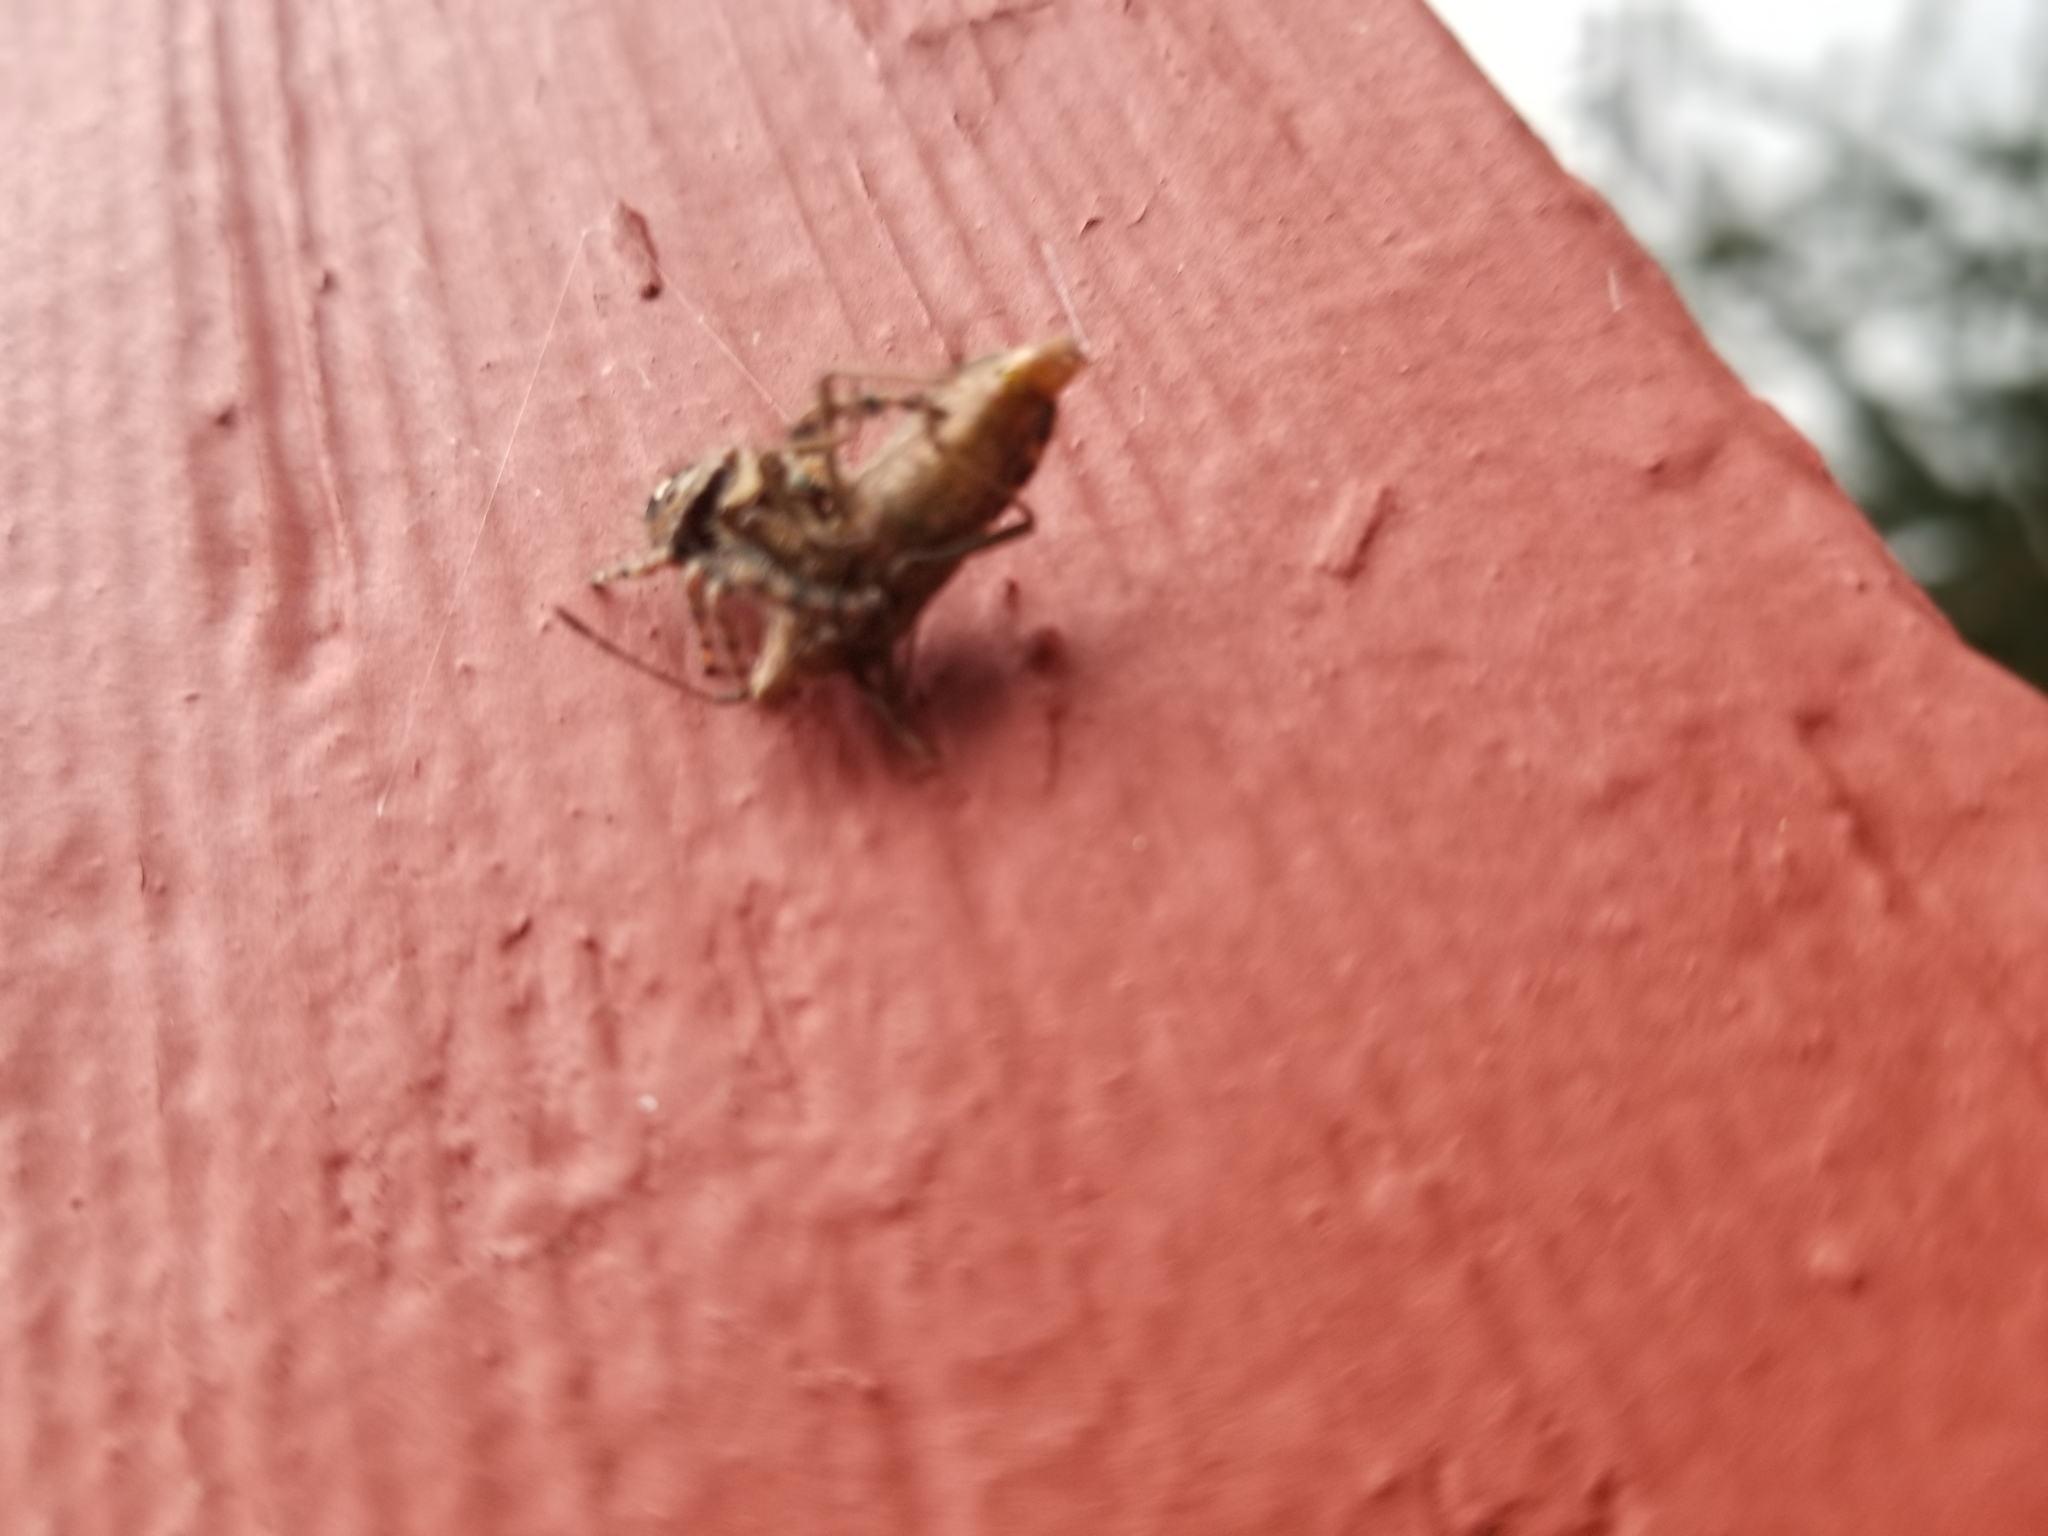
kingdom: Animalia
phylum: Arthropoda
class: Arachnida
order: Araneae
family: Salticidae
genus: Phidippus
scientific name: Phidippus audax
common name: Bold jumper
